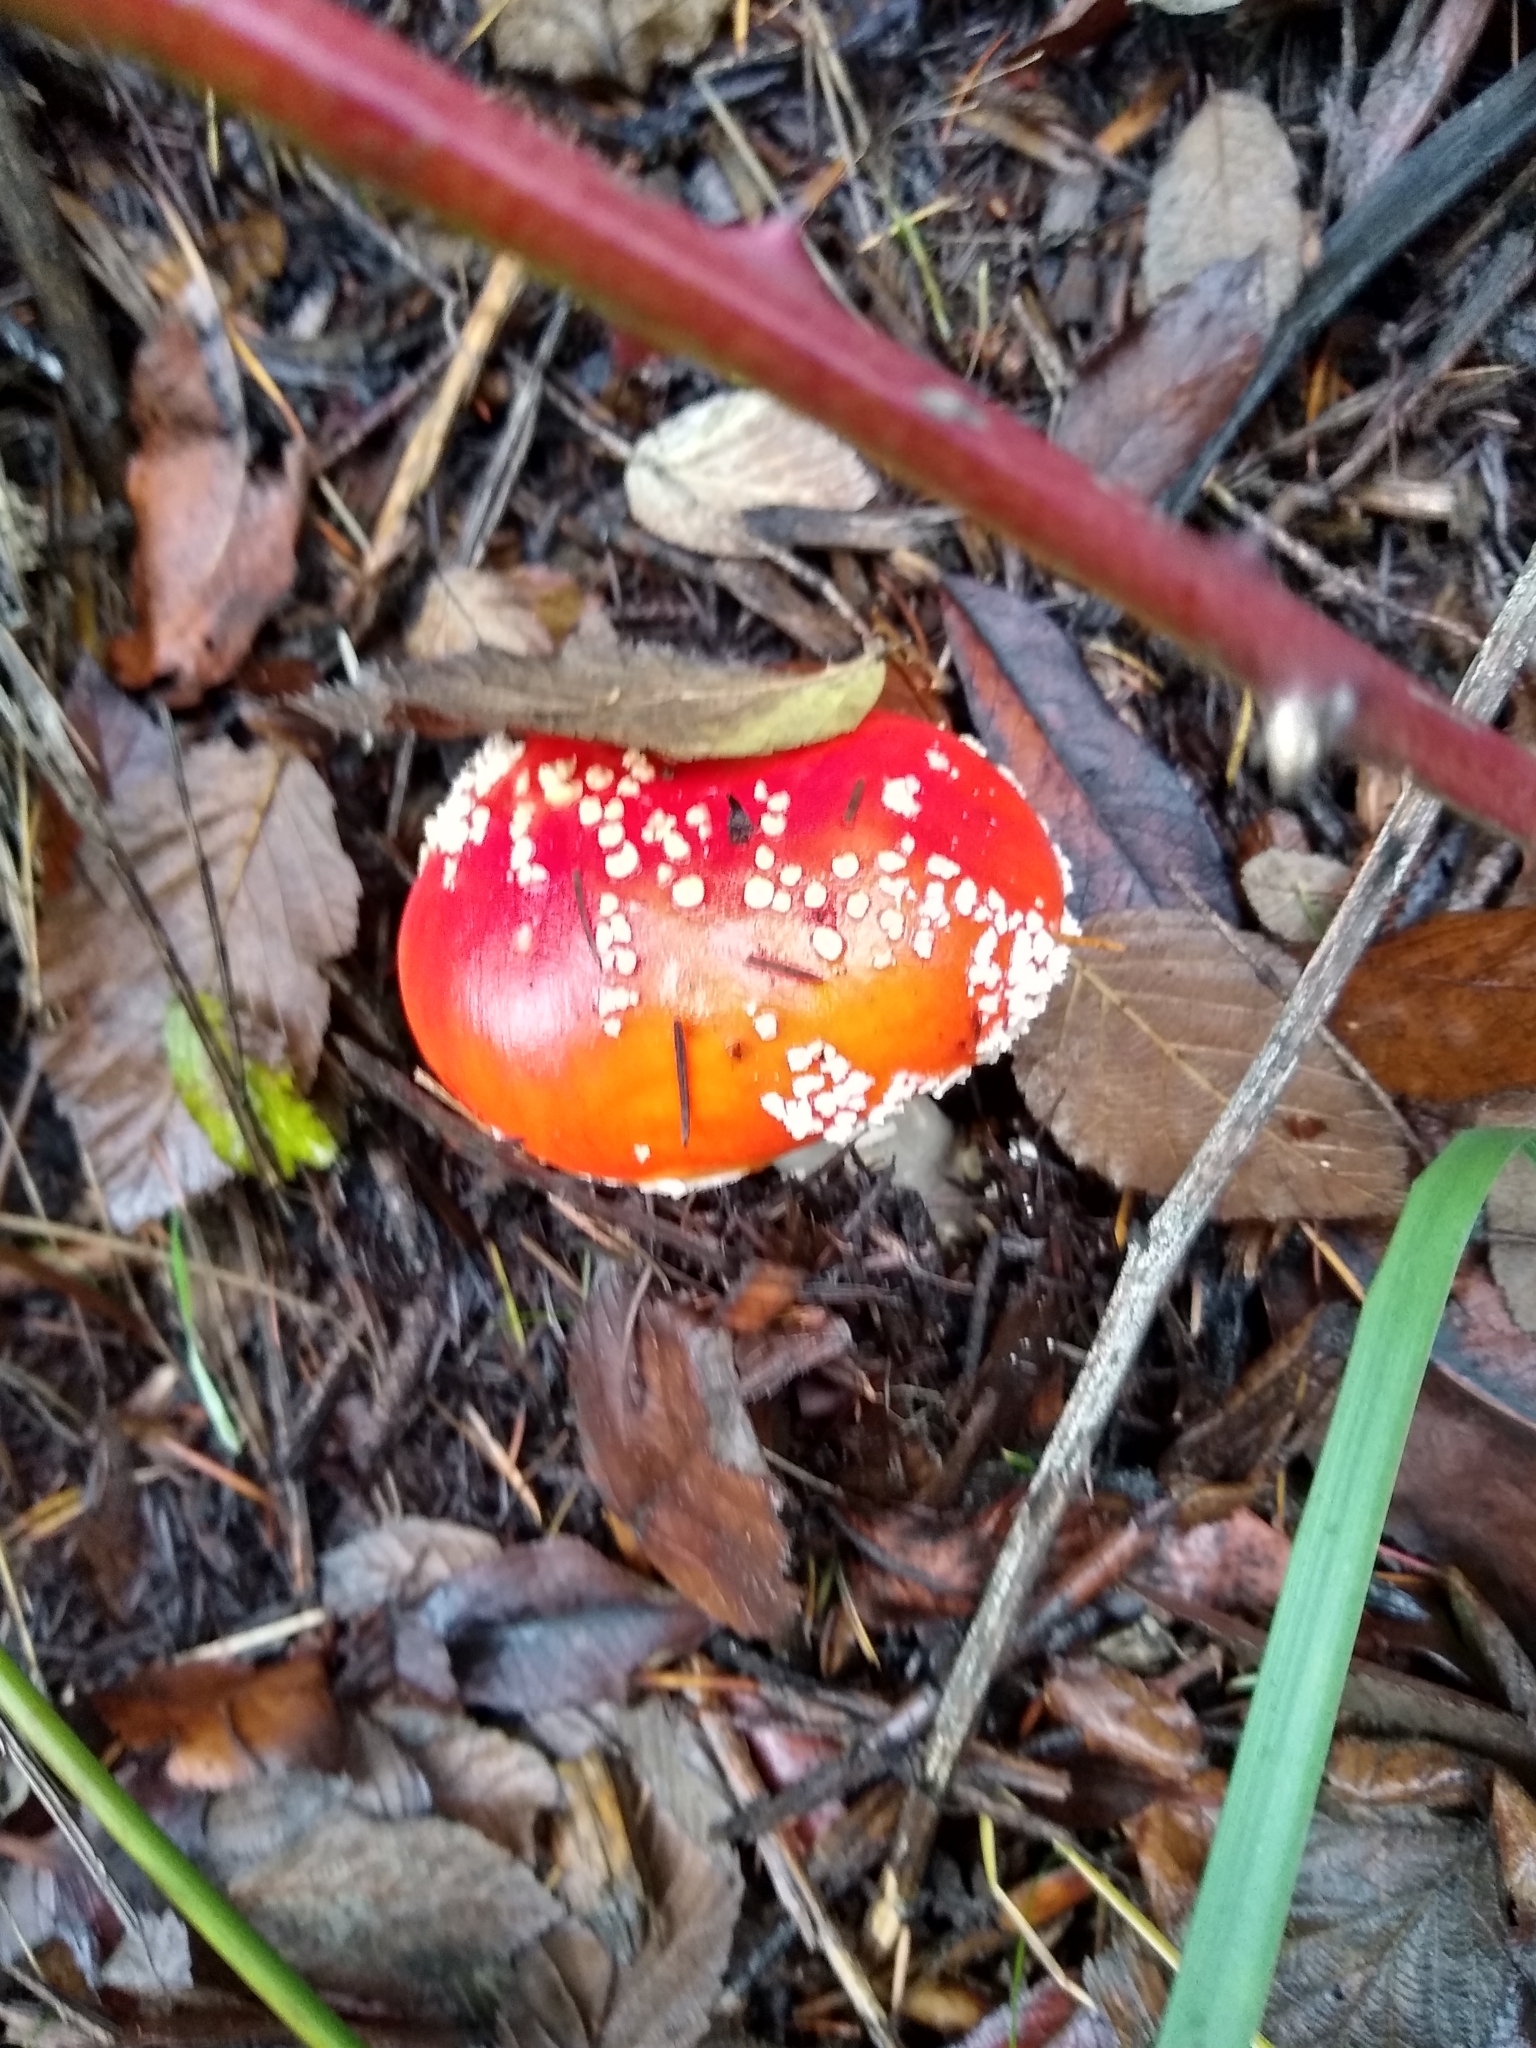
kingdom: Fungi
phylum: Basidiomycota
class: Agaricomycetes
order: Agaricales
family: Amanitaceae
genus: Amanita
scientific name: Amanita muscaria
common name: Fly agaric
